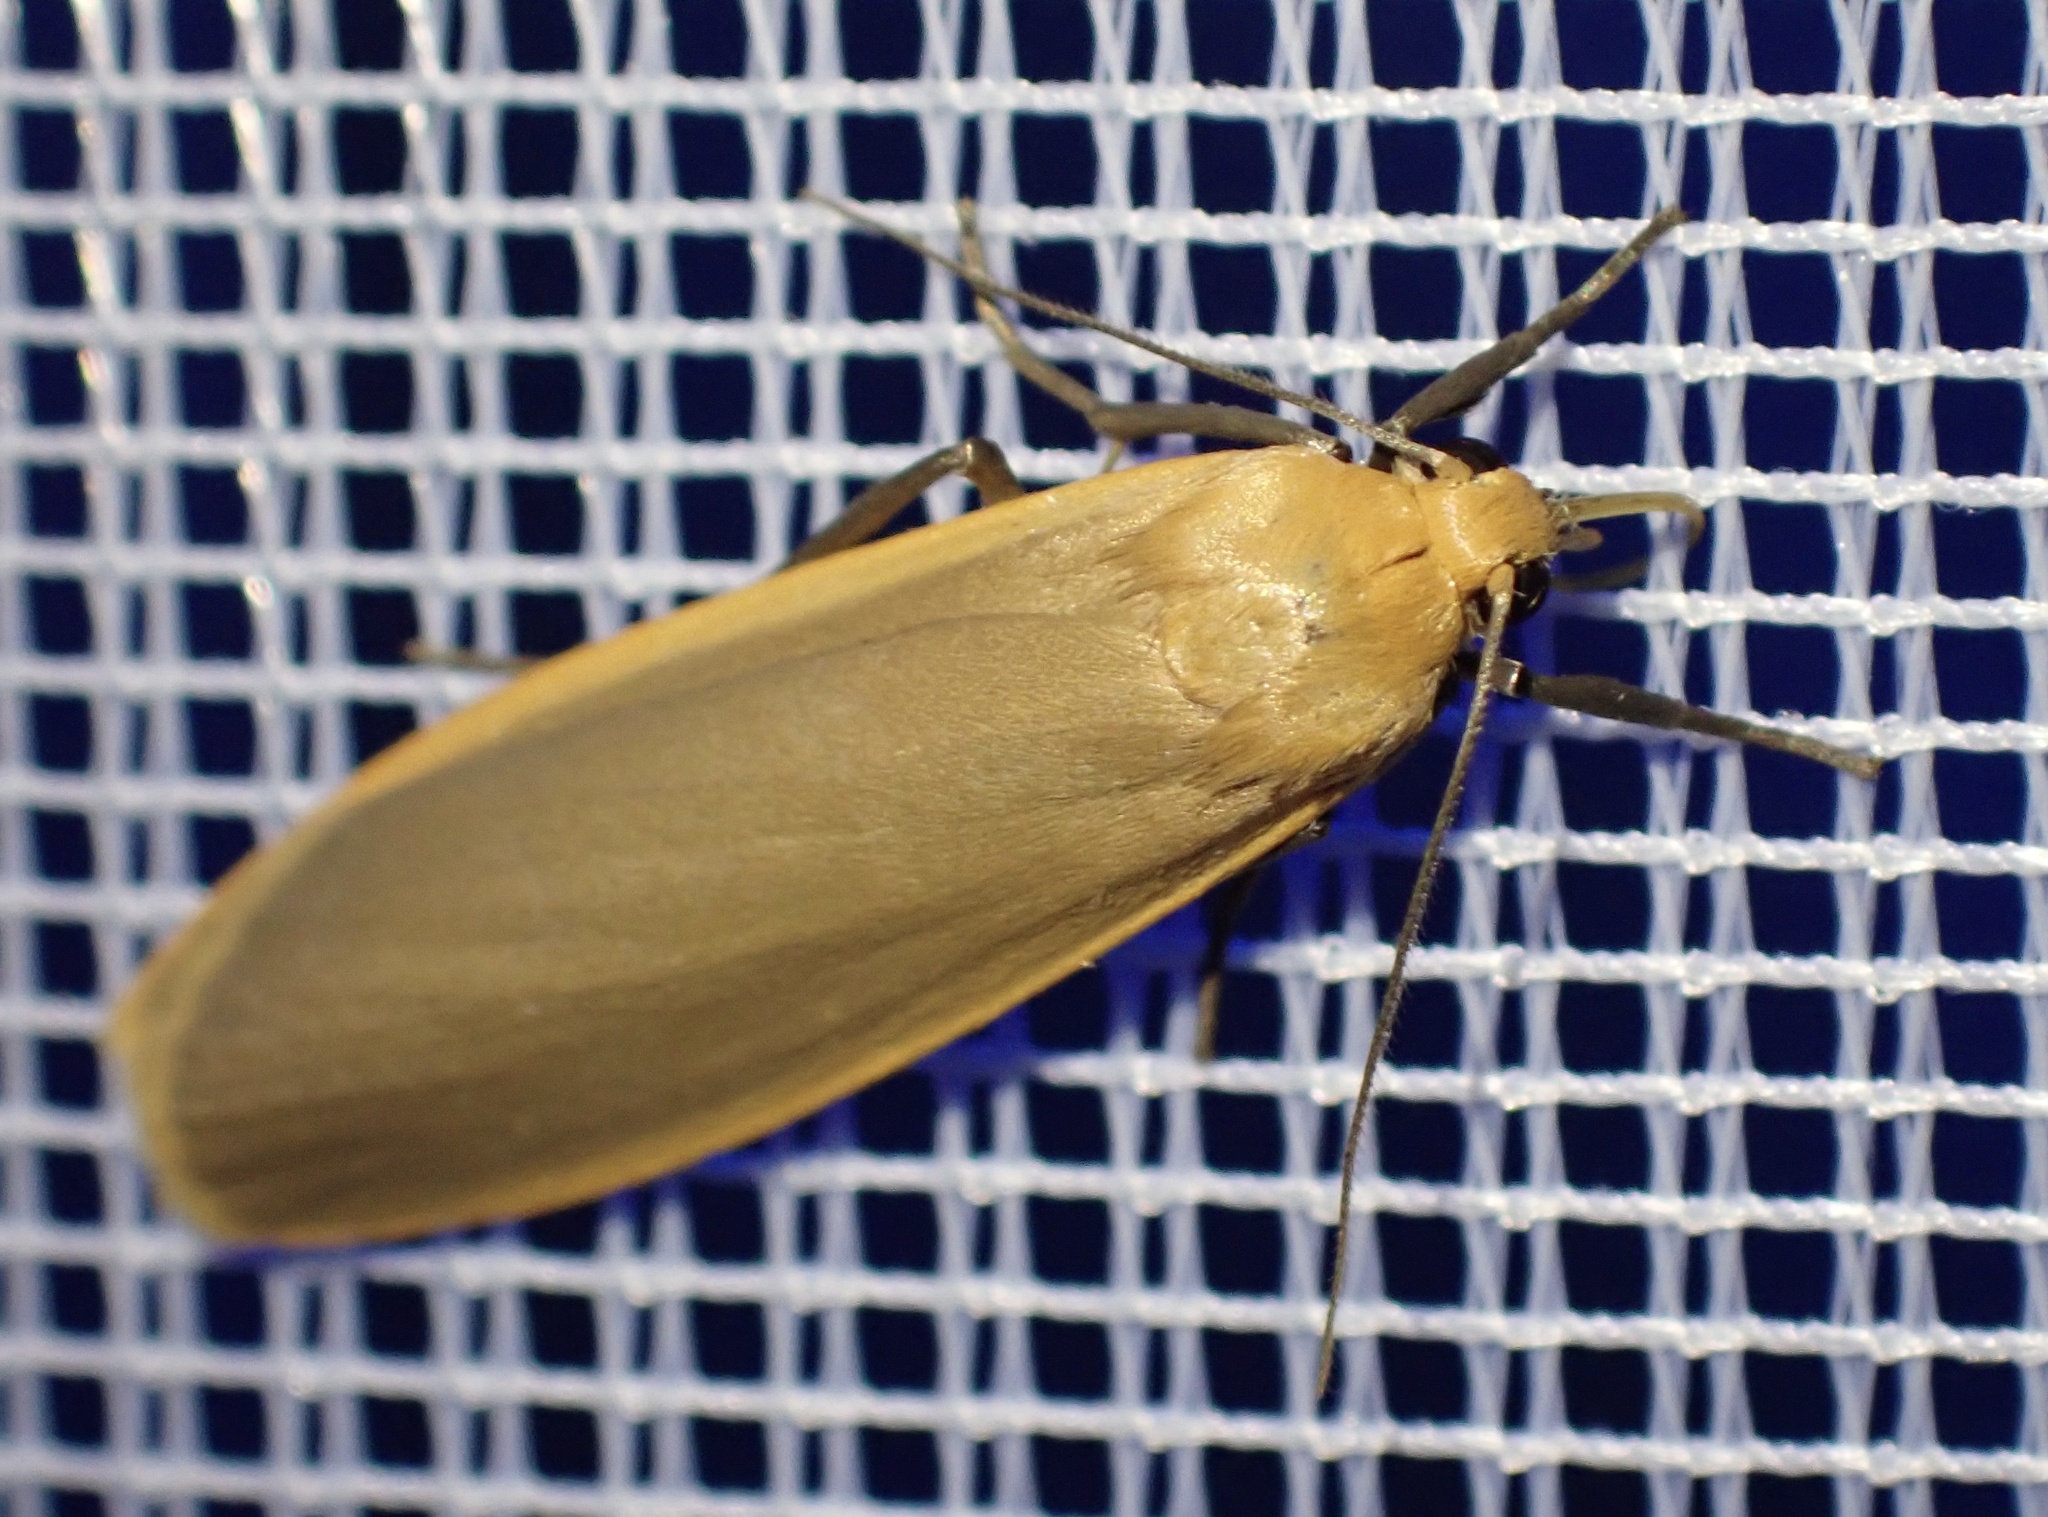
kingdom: Animalia
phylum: Arthropoda
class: Insecta
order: Lepidoptera
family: Erebidae
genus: Katha
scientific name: Katha depressa
